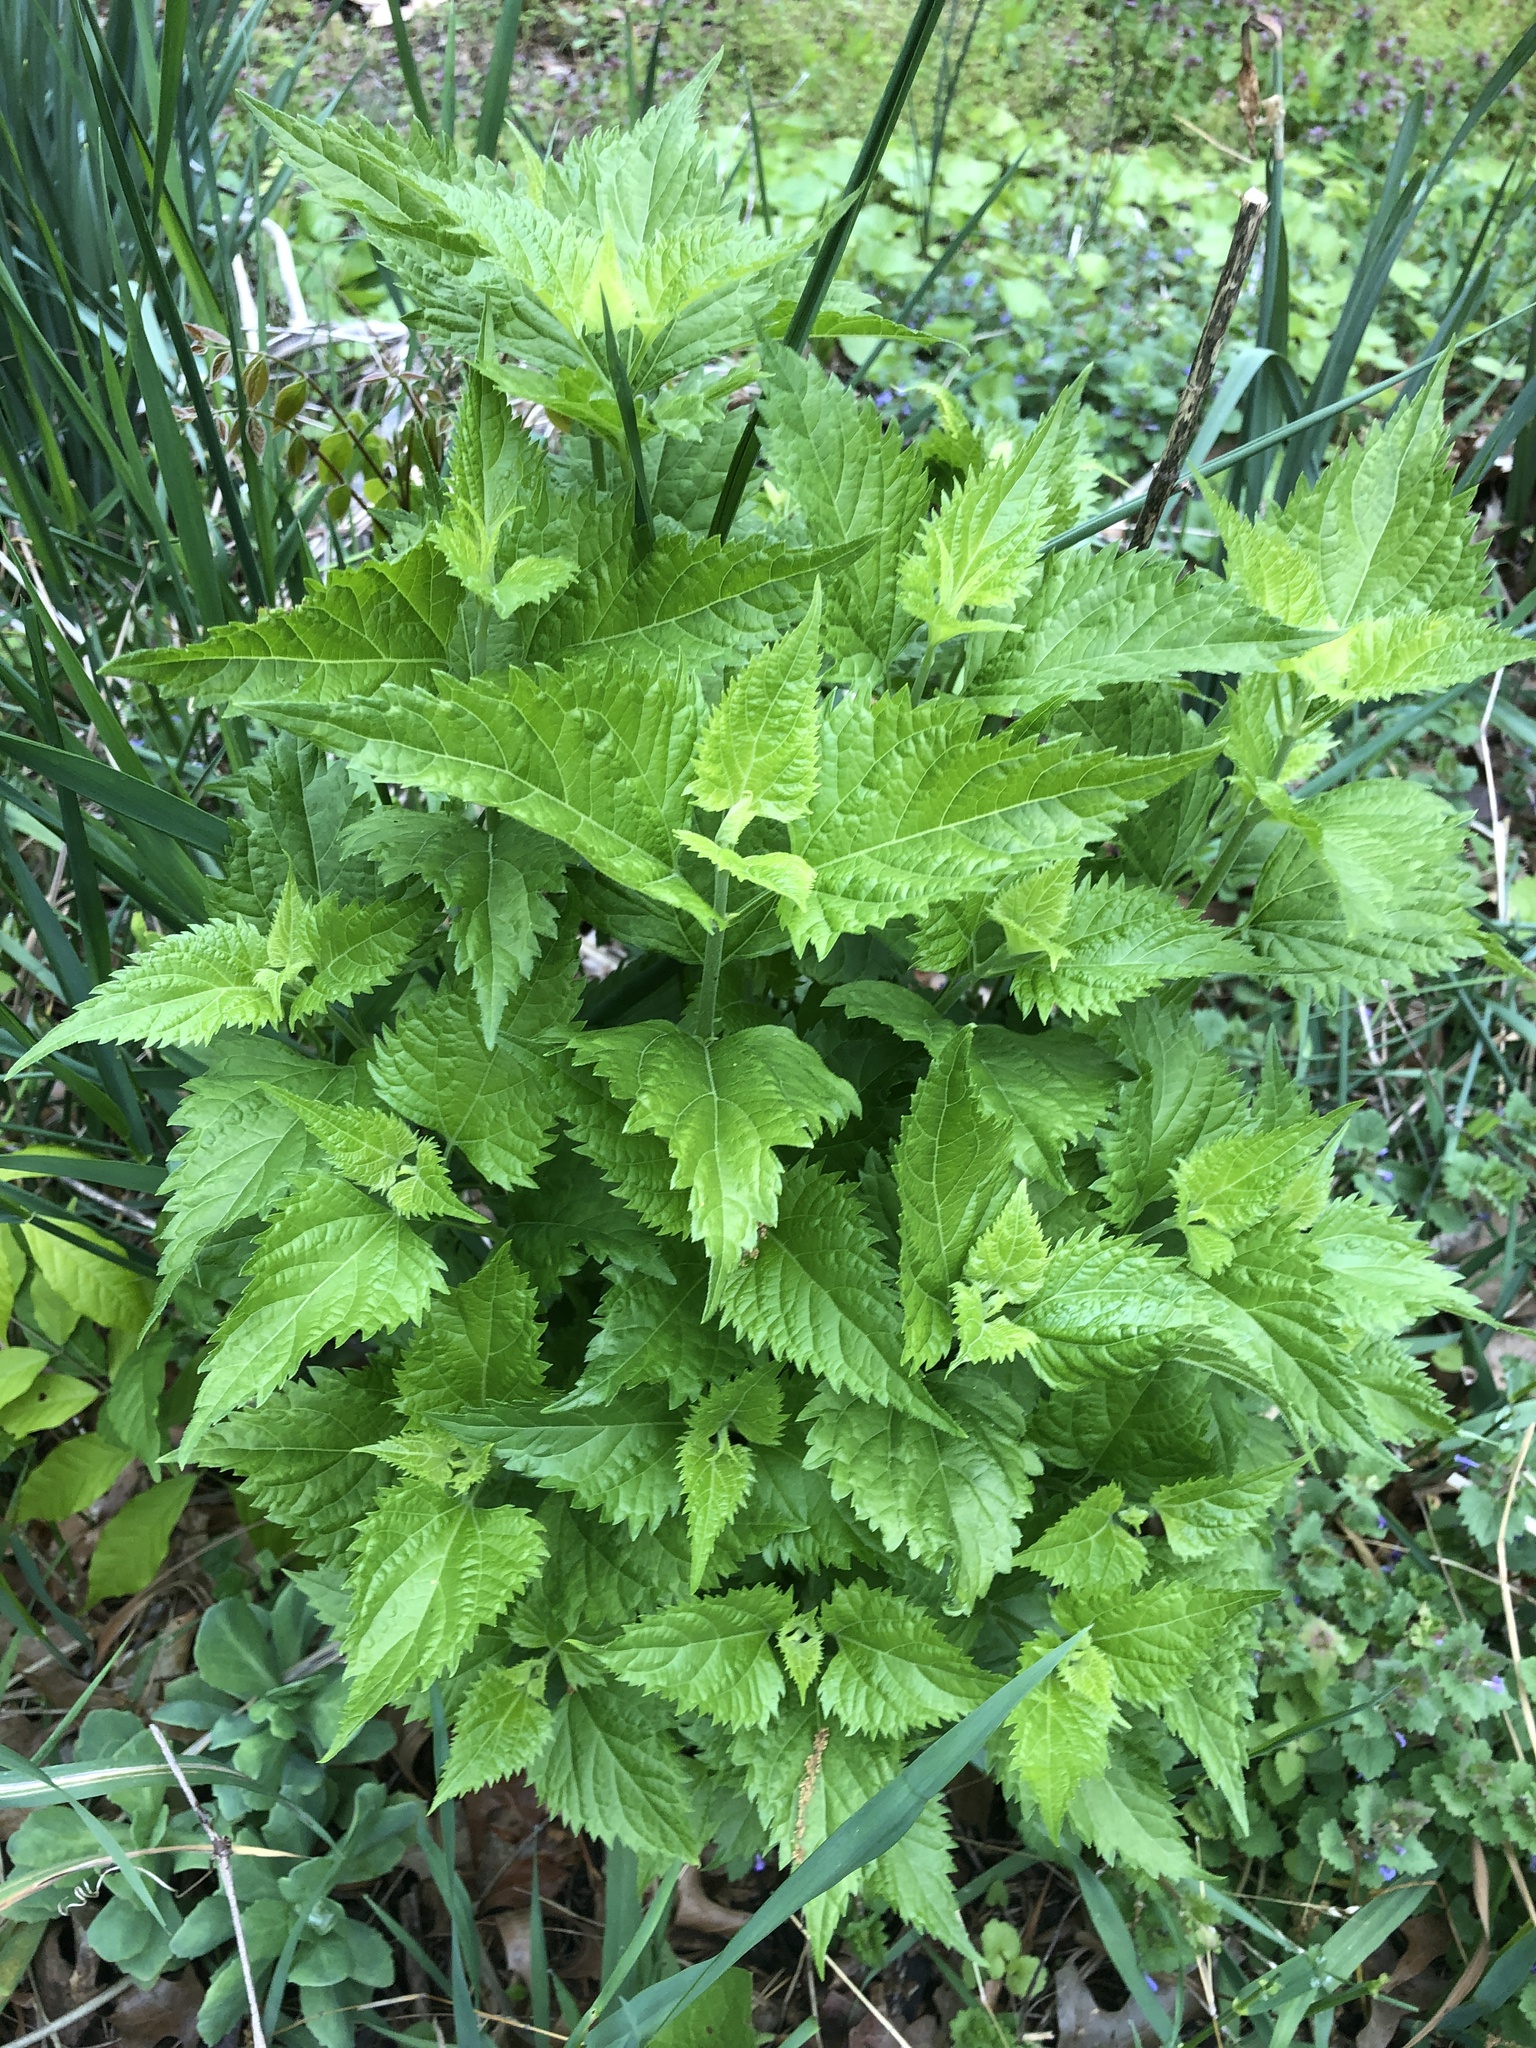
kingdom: Plantae
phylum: Tracheophyta
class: Magnoliopsida
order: Asterales
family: Asteraceae
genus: Ageratina
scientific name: Ageratina altissima
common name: White snakeroot
